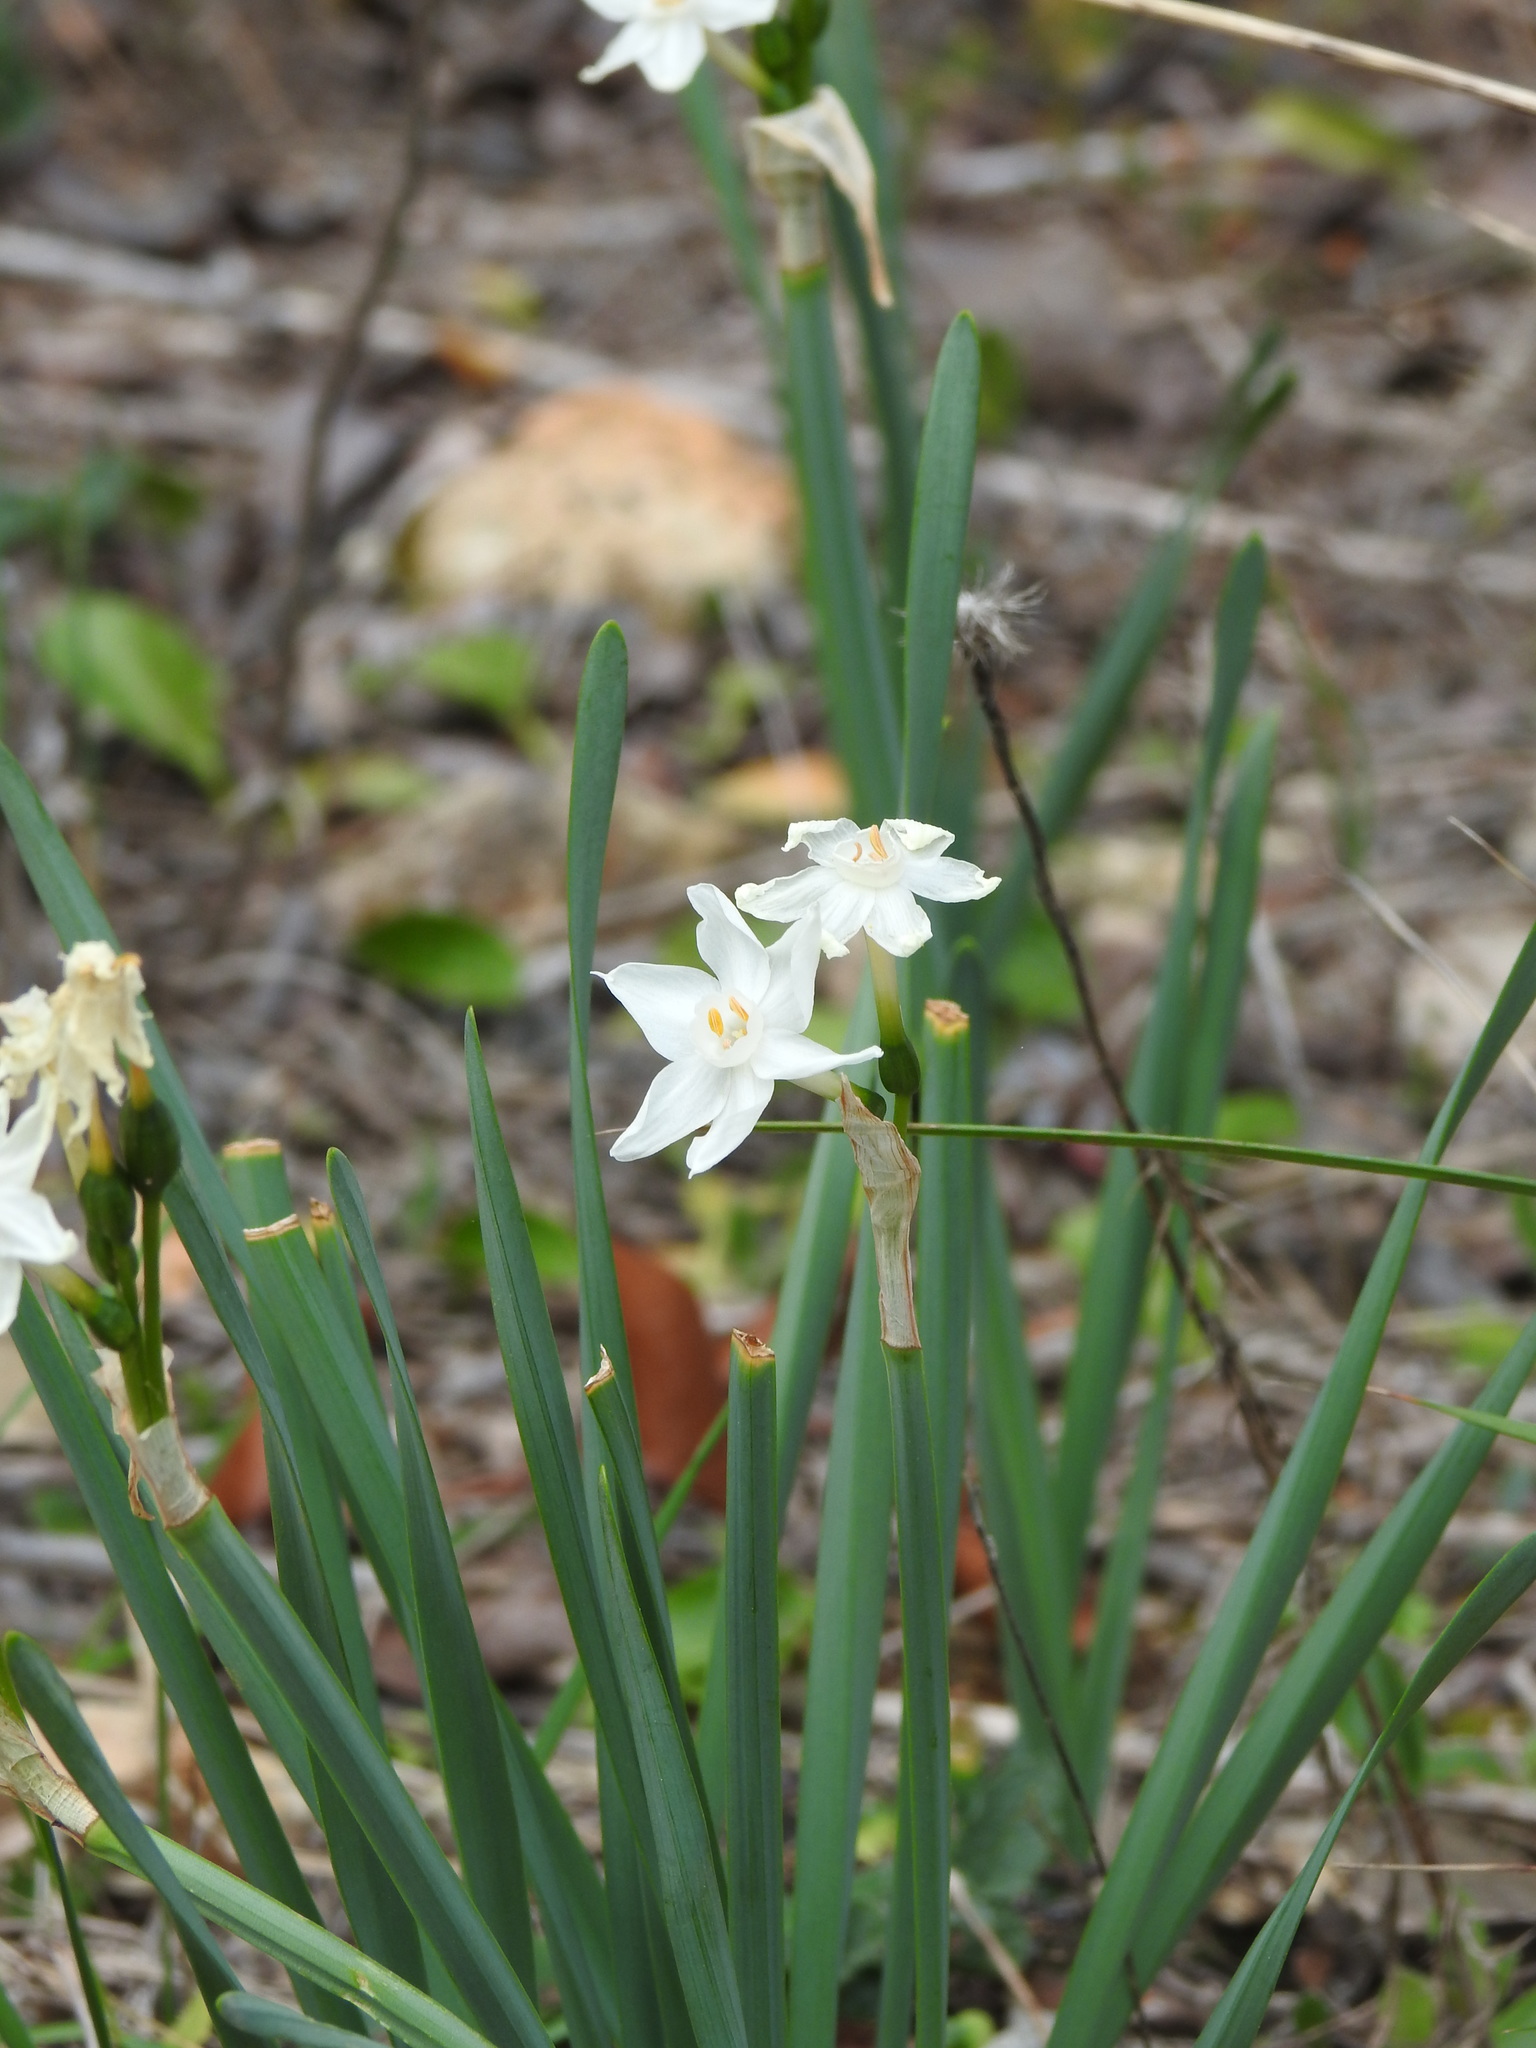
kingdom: Plantae
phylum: Tracheophyta
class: Liliopsida
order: Asparagales
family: Amaryllidaceae
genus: Narcissus
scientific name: Narcissus papyraceus
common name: Paper-white daffodil
